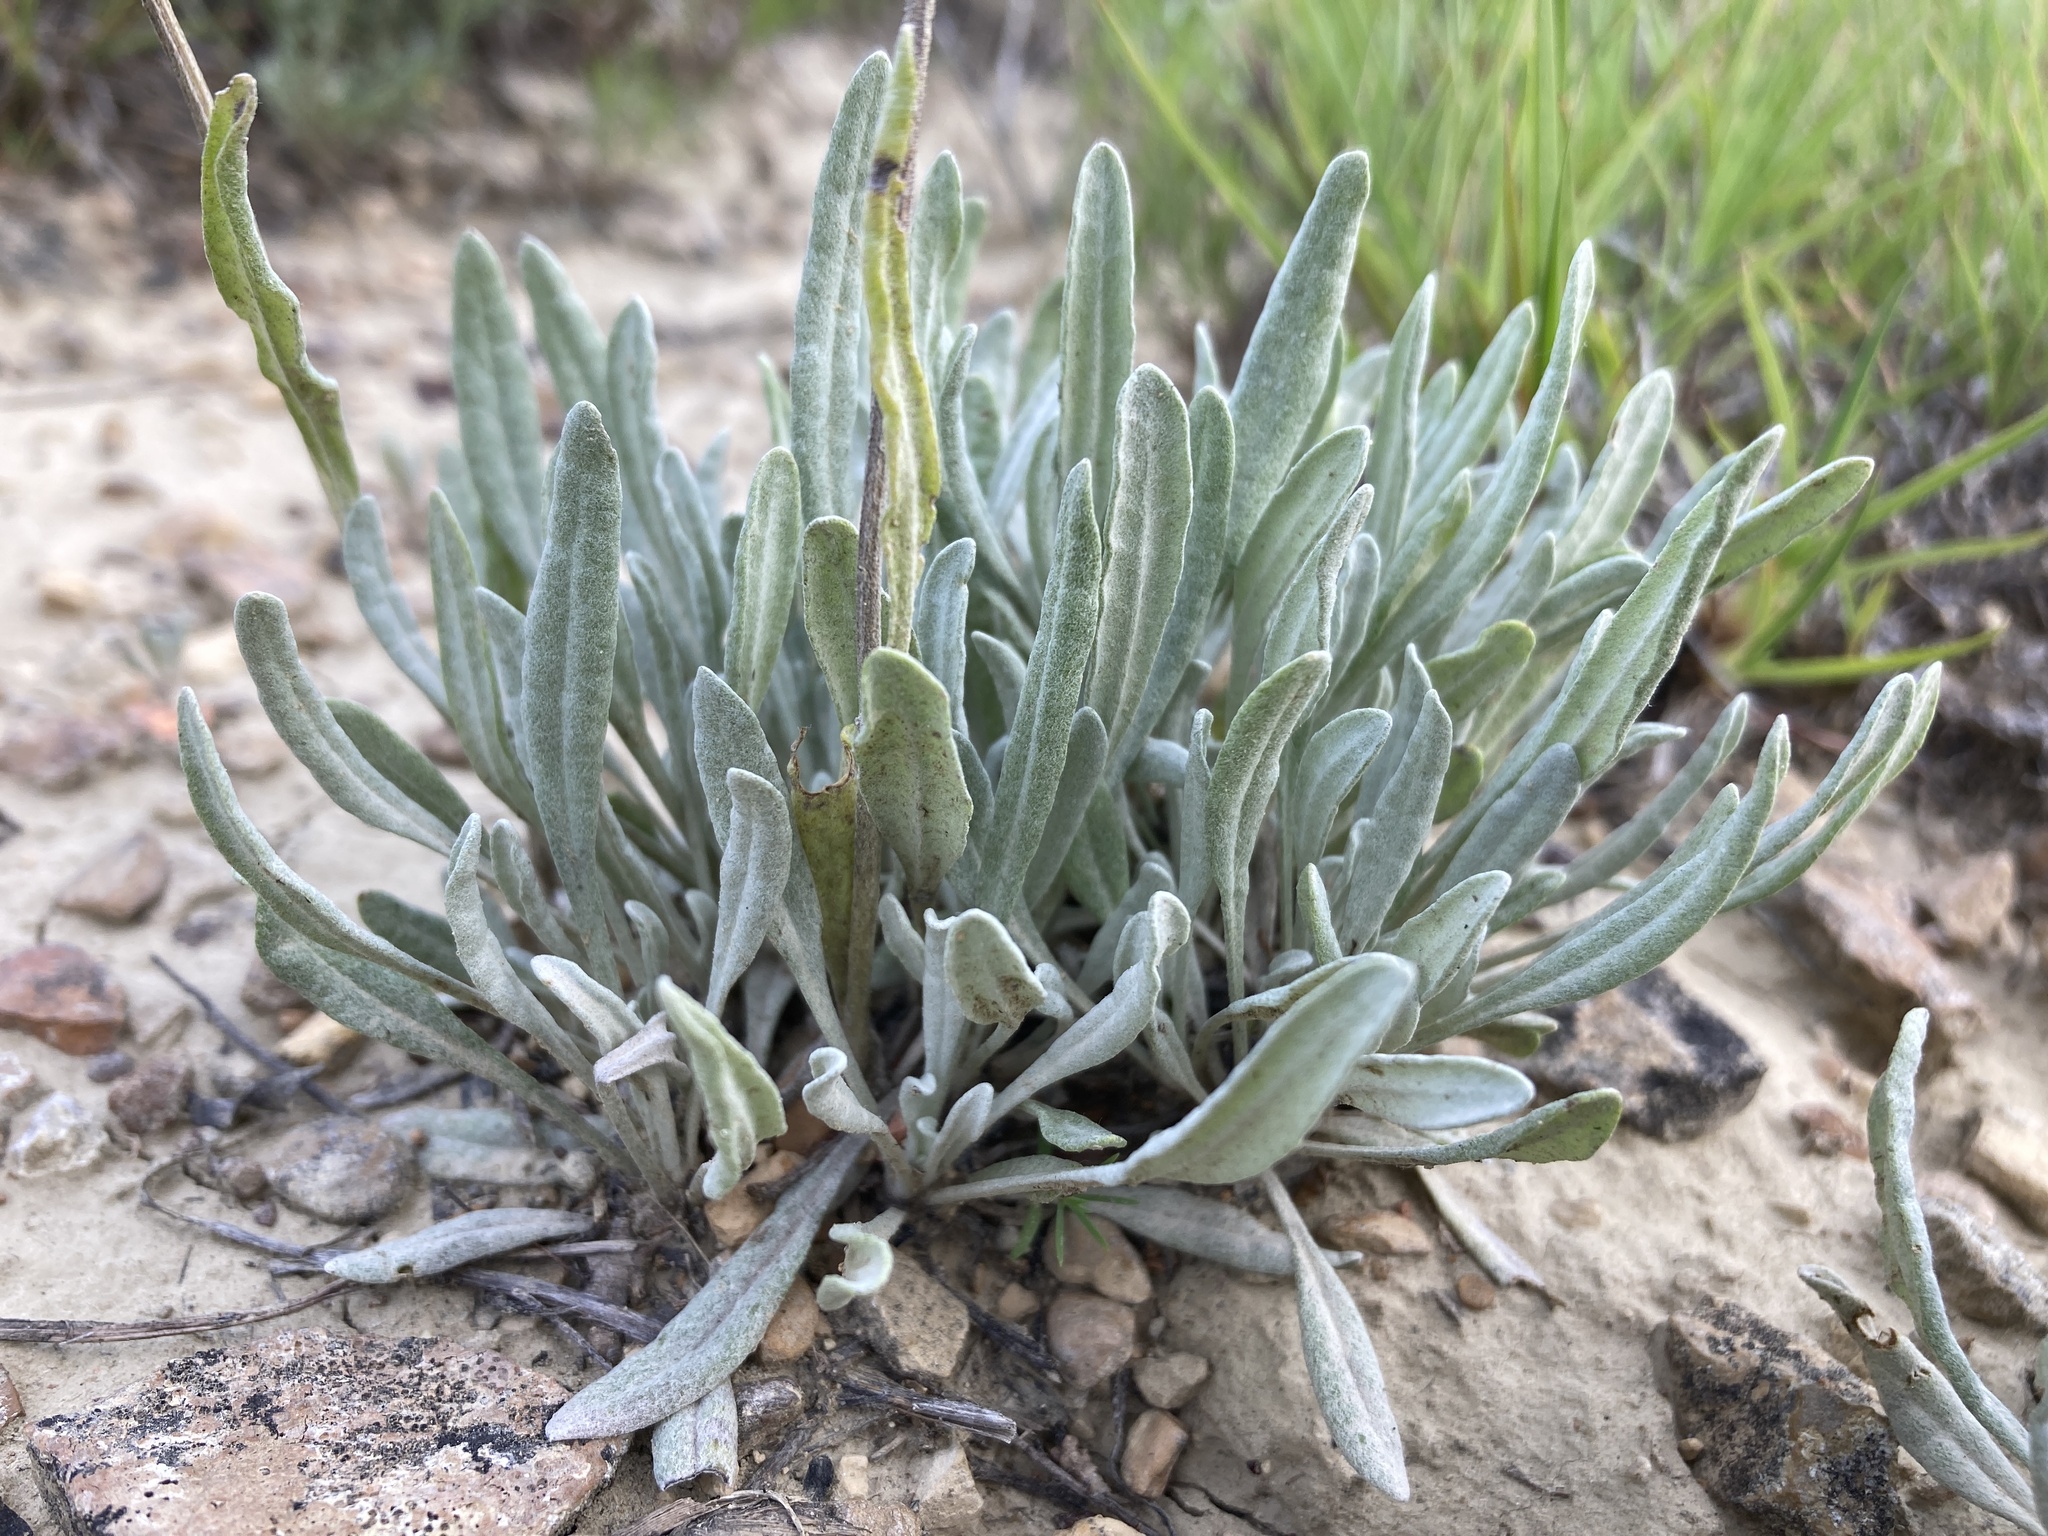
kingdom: Plantae
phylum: Tracheophyta
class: Magnoliopsida
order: Asterales
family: Asteraceae
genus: Packera
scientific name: Packera cana
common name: Woolly groundsel
